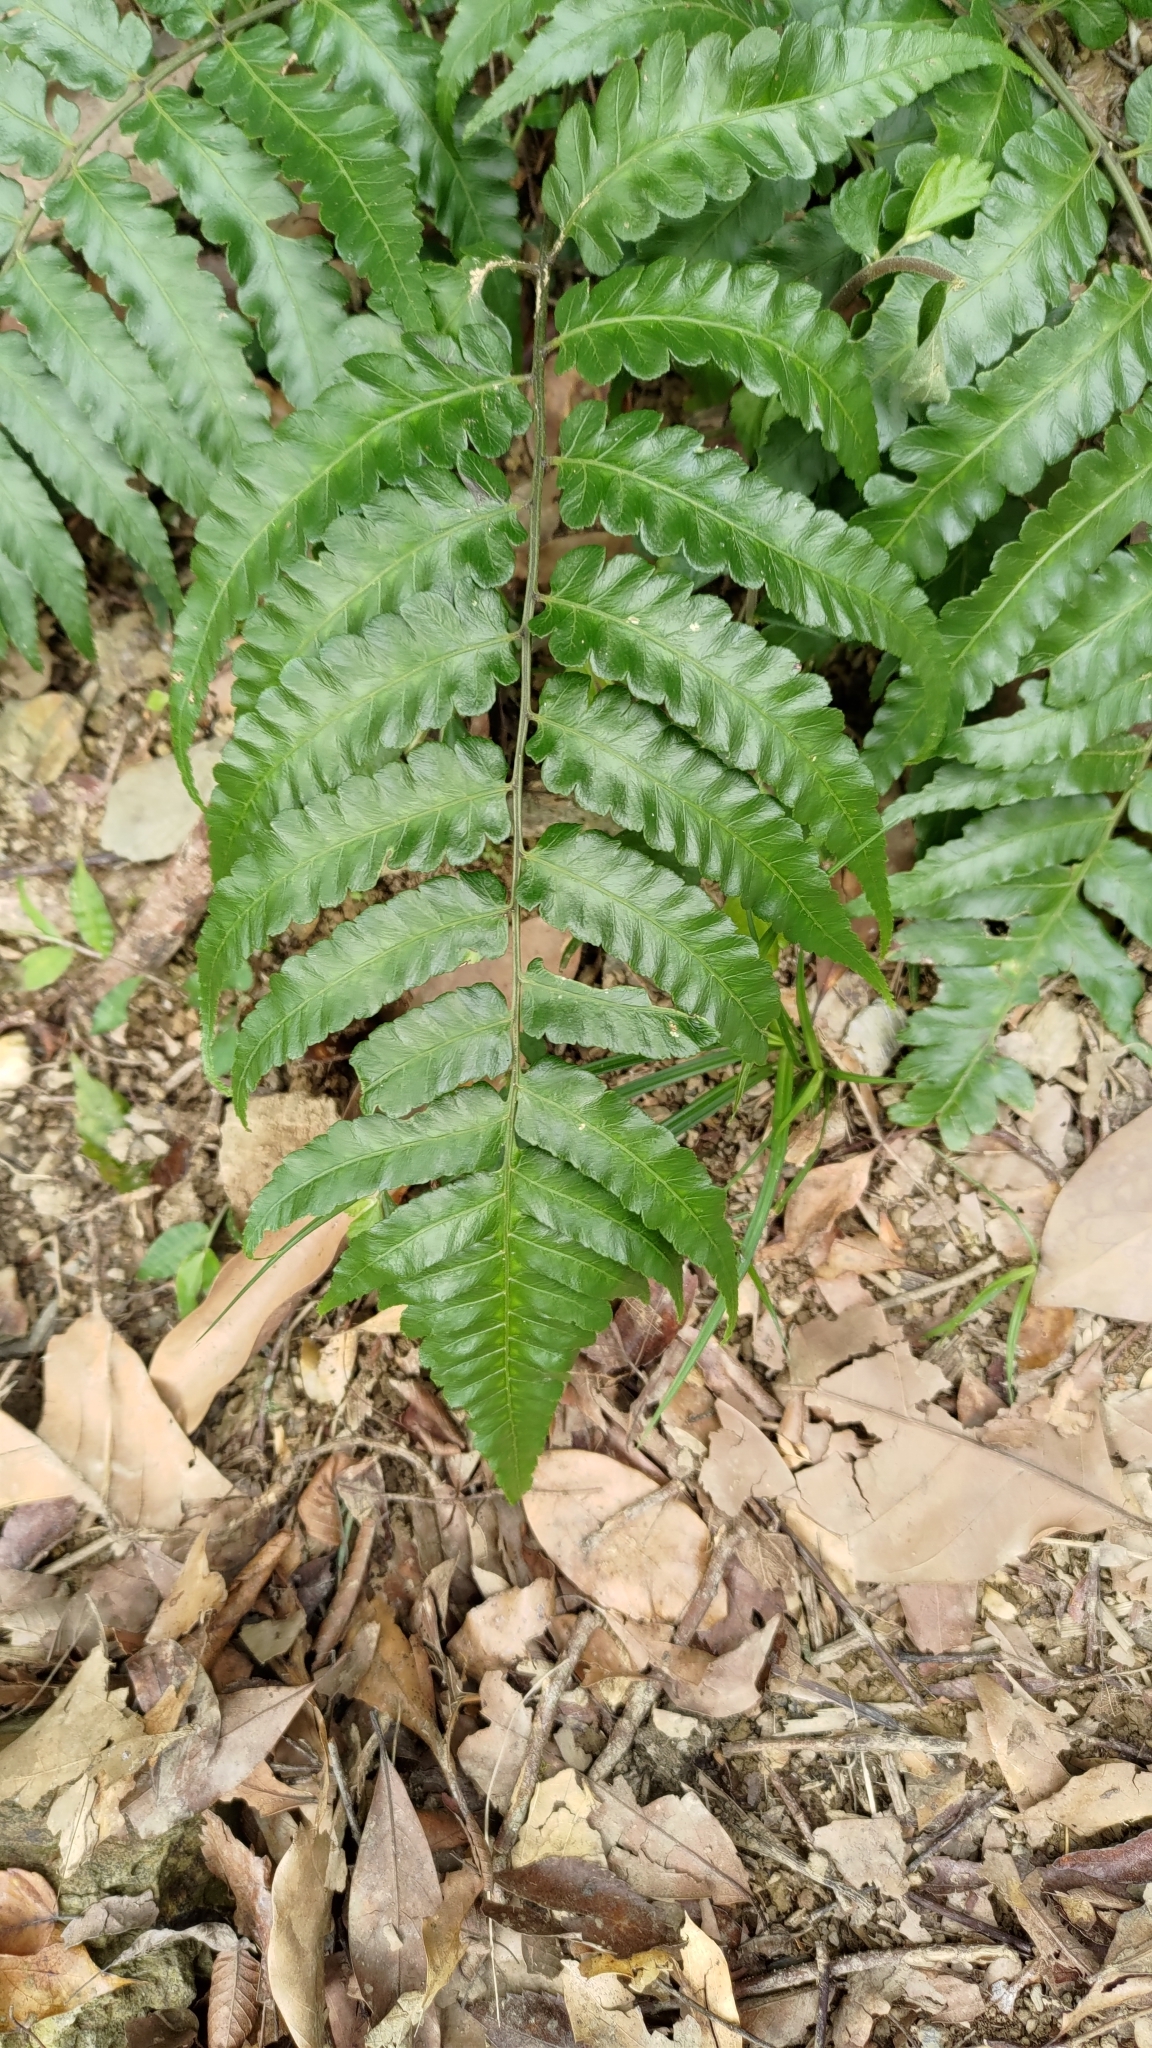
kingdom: Plantae
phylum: Tracheophyta
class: Polypodiopsida
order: Polypodiales
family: Athyriaceae
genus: Diplazium
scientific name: Diplazium dilatatum
